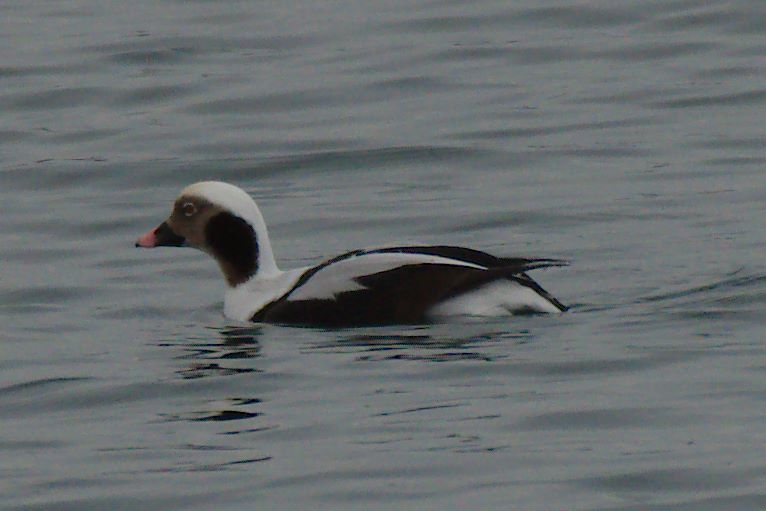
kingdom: Animalia
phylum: Chordata
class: Aves
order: Anseriformes
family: Anatidae
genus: Clangula
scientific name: Clangula hyemalis
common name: Long-tailed duck
